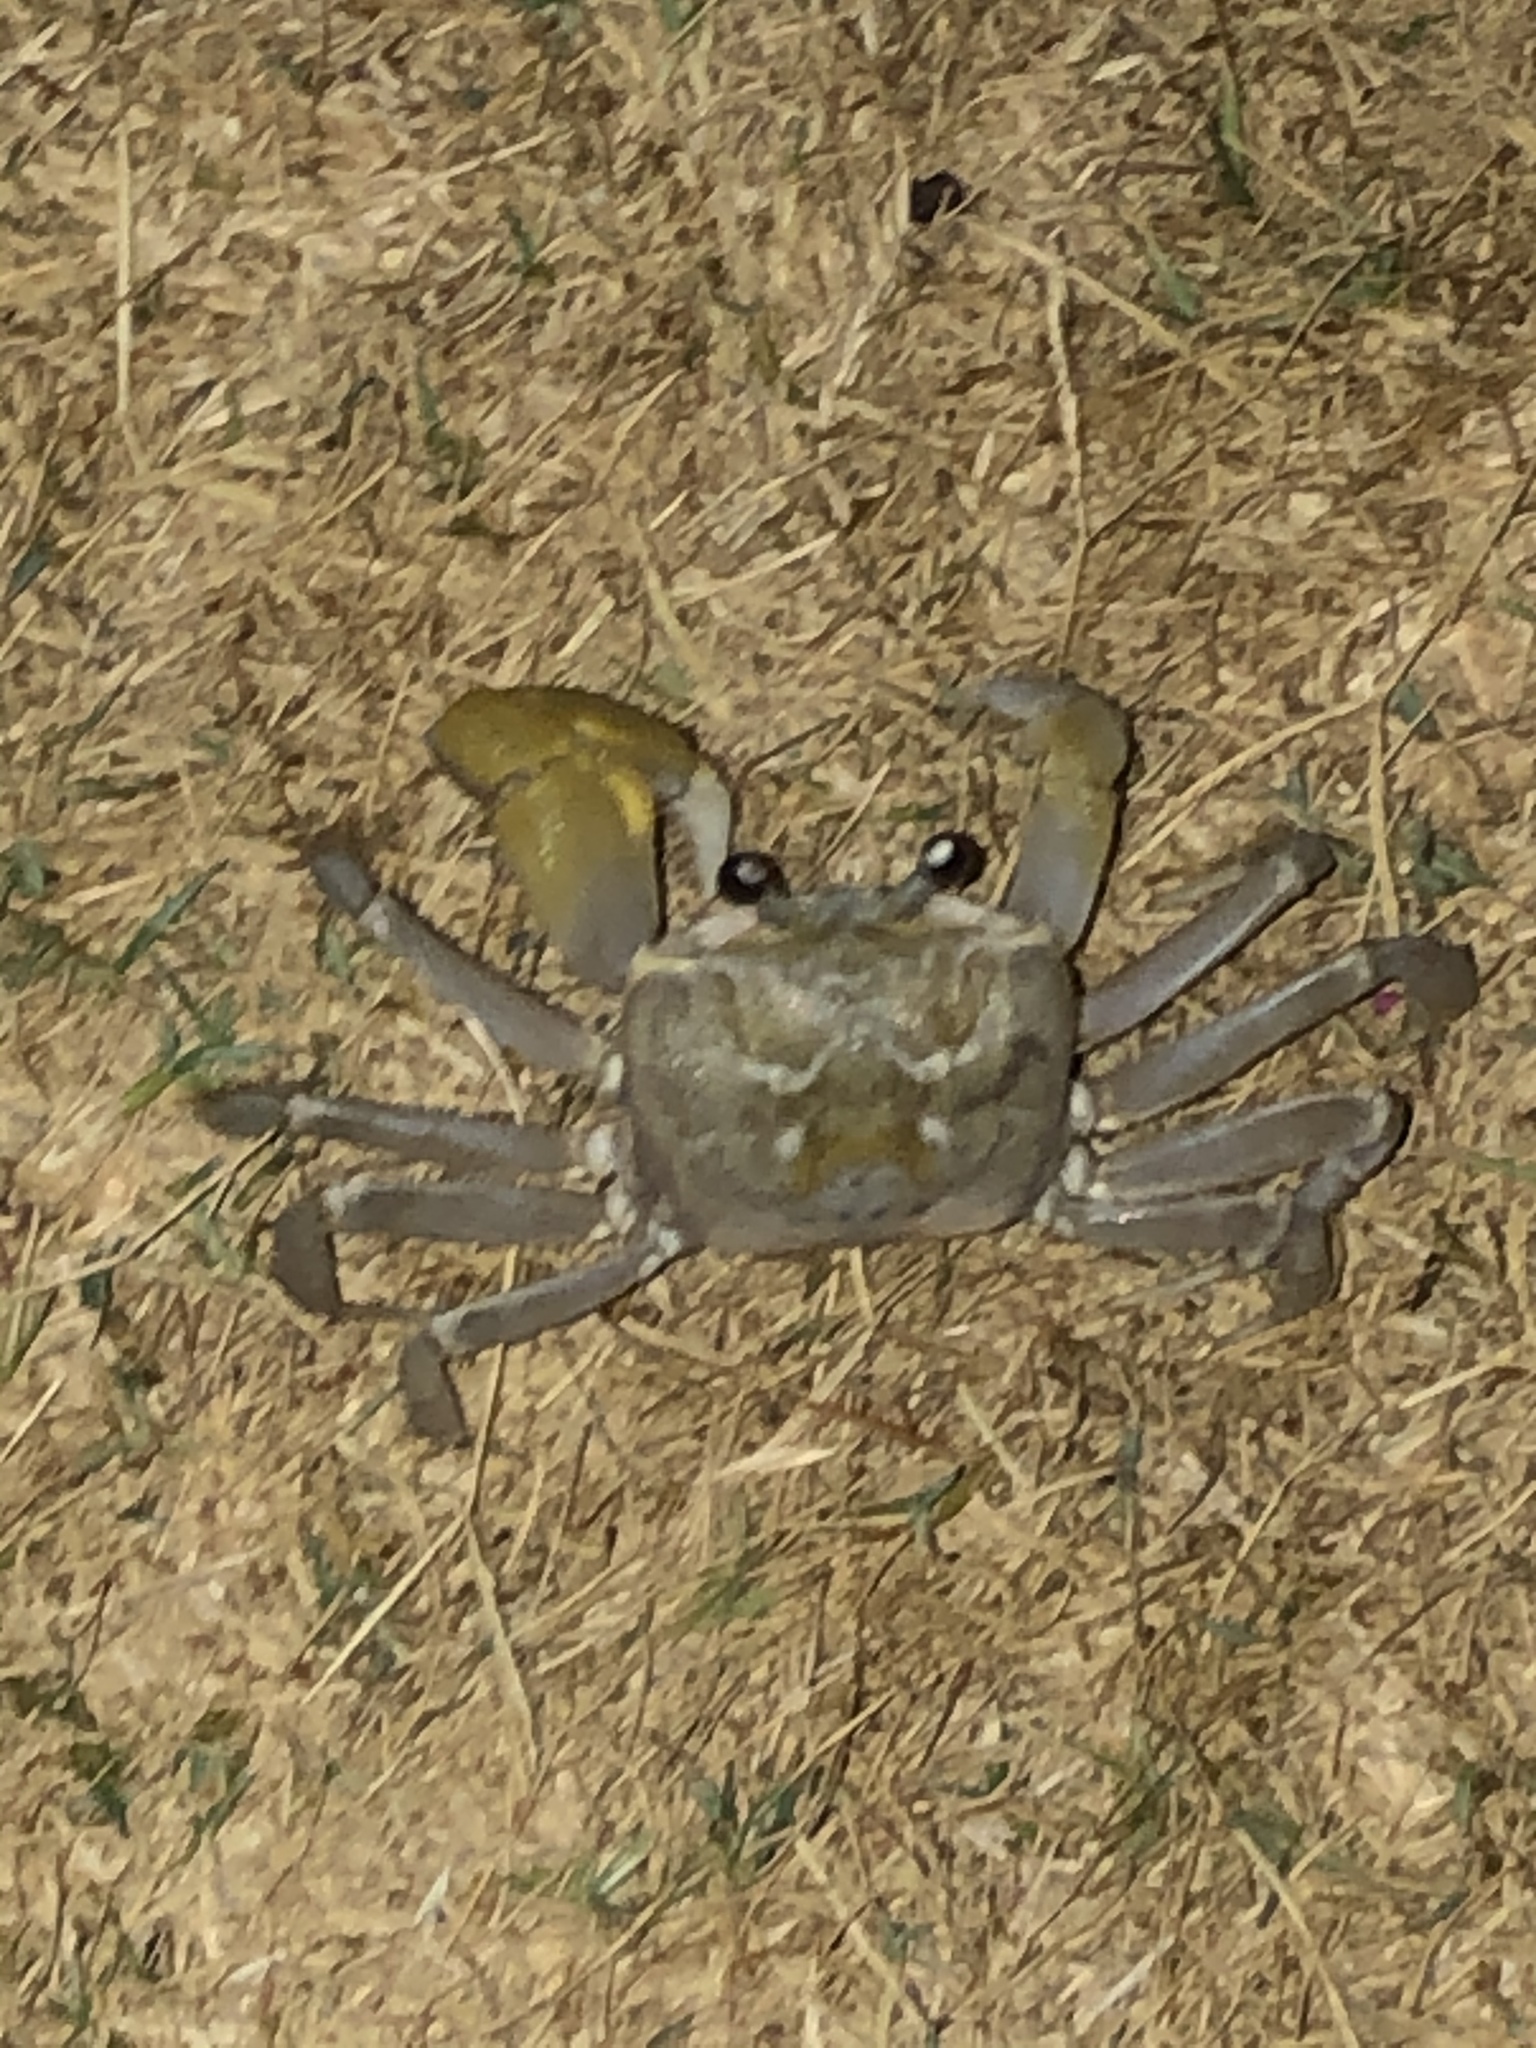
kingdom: Animalia
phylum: Arthropoda
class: Malacostraca
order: Decapoda
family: Ocypodidae
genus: Ocypode
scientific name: Ocypode cordimana
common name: Smooth-eyed ghost crab
